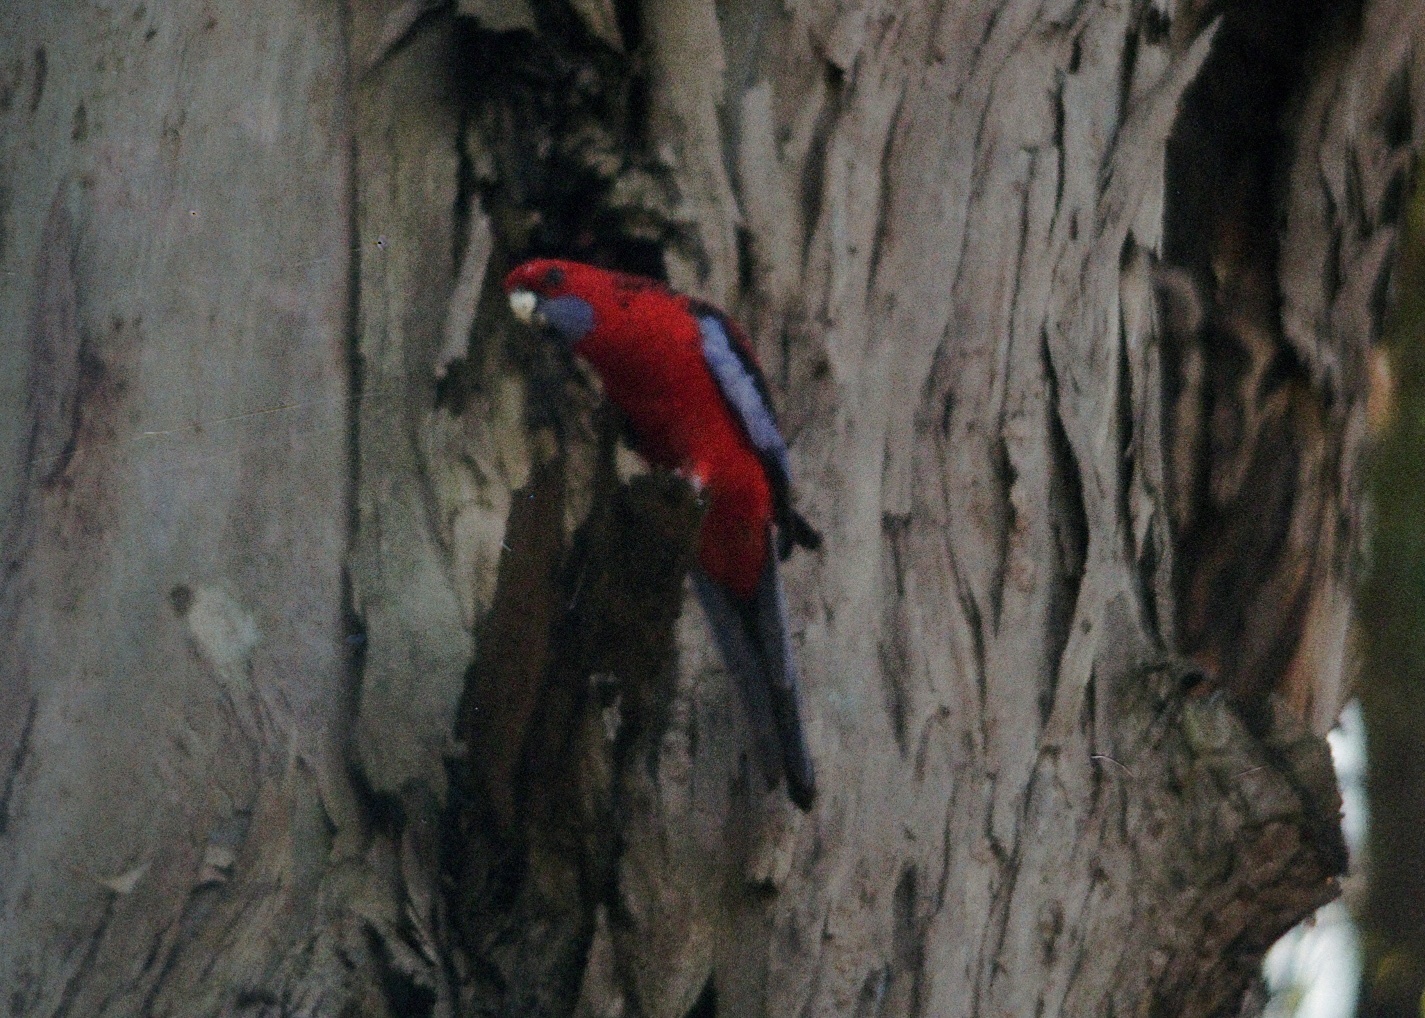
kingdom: Animalia
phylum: Chordata
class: Aves
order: Psittaciformes
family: Psittacidae
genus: Platycercus
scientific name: Platycercus elegans
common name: Crimson rosella
